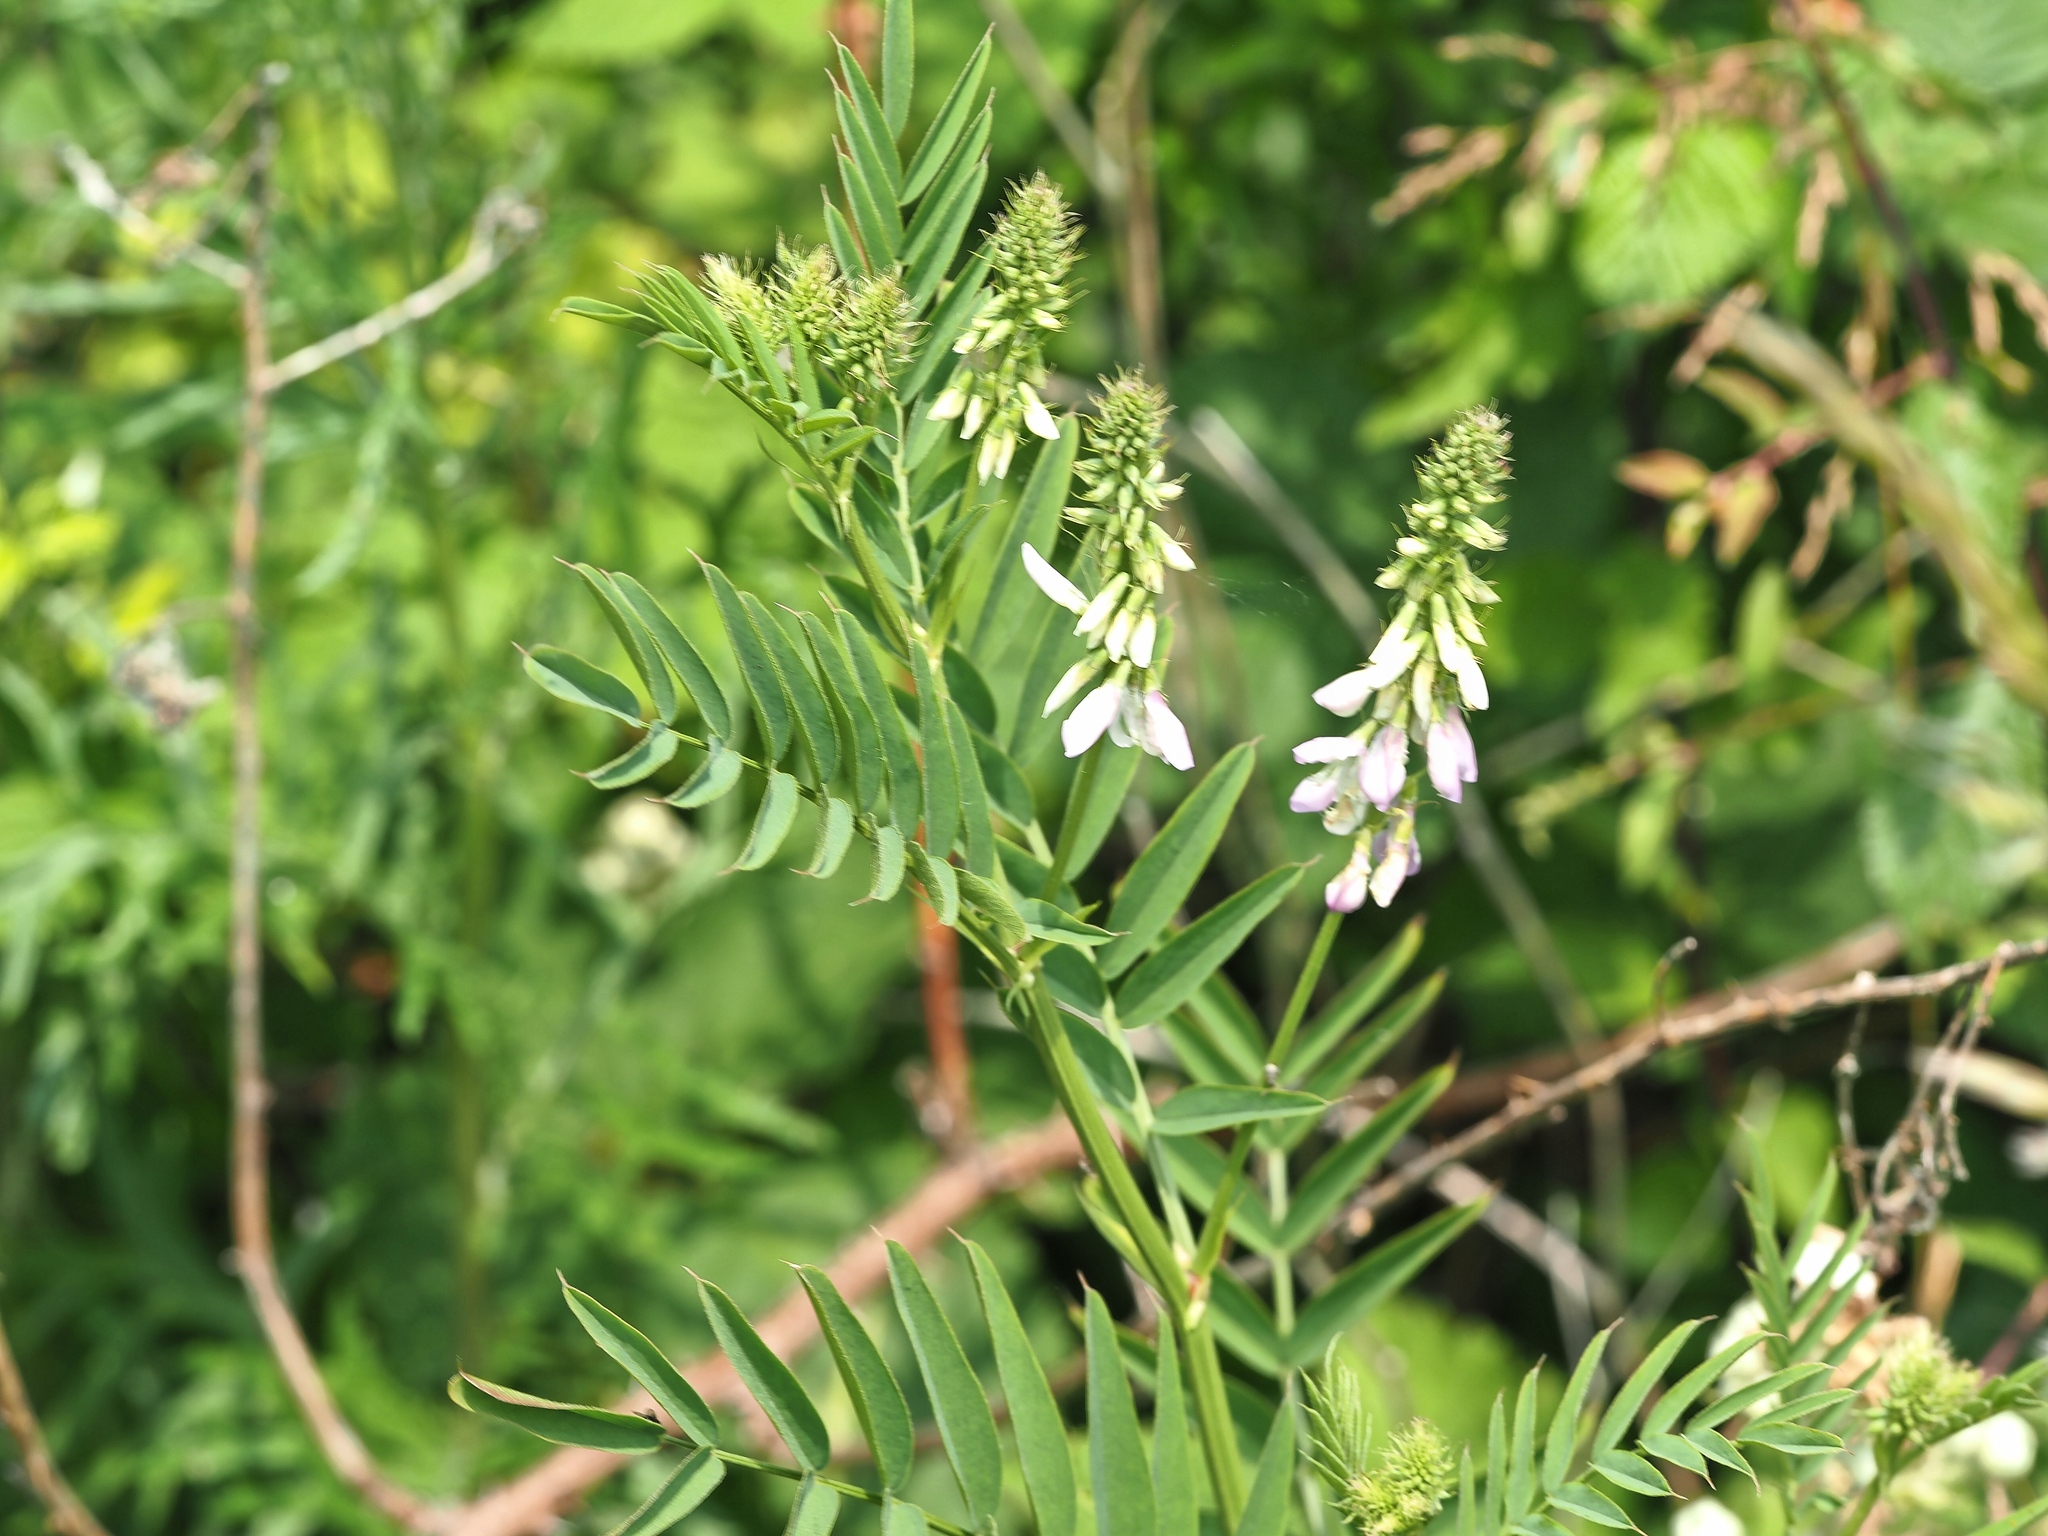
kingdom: Plantae
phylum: Tracheophyta
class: Magnoliopsida
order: Fabales
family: Fabaceae
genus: Galega
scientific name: Galega officinalis
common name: Goat's-rue
